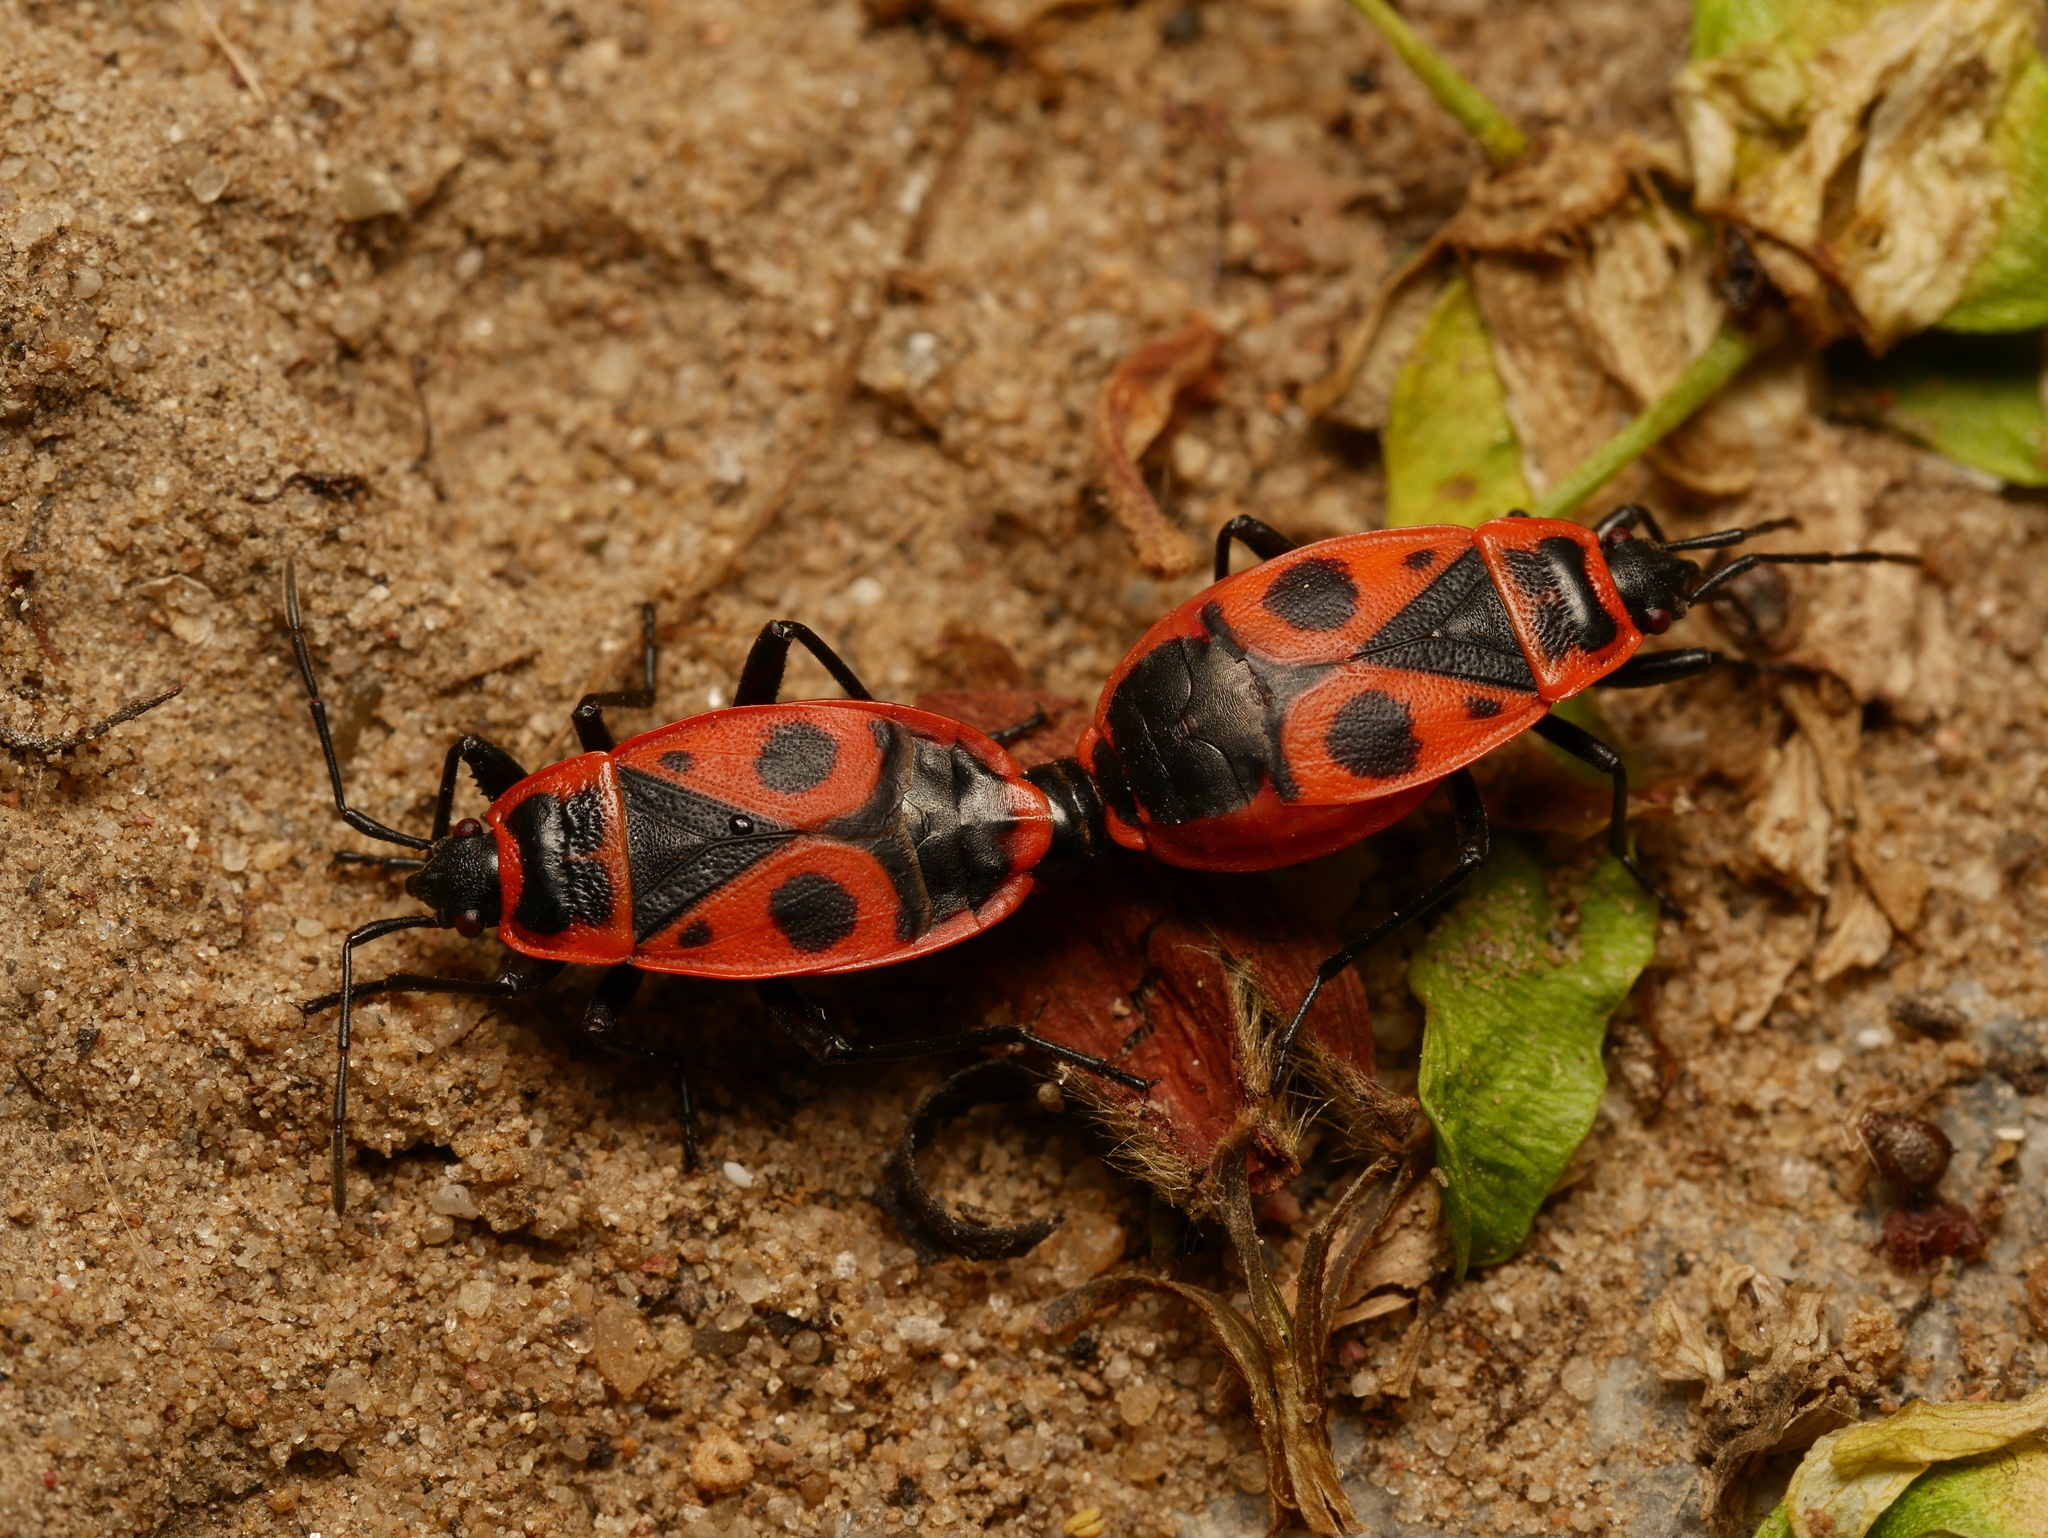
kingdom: Animalia
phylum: Arthropoda
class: Insecta
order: Hemiptera
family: Pyrrhocoridae
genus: Pyrrhocoris
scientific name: Pyrrhocoris apterus
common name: Firebug
